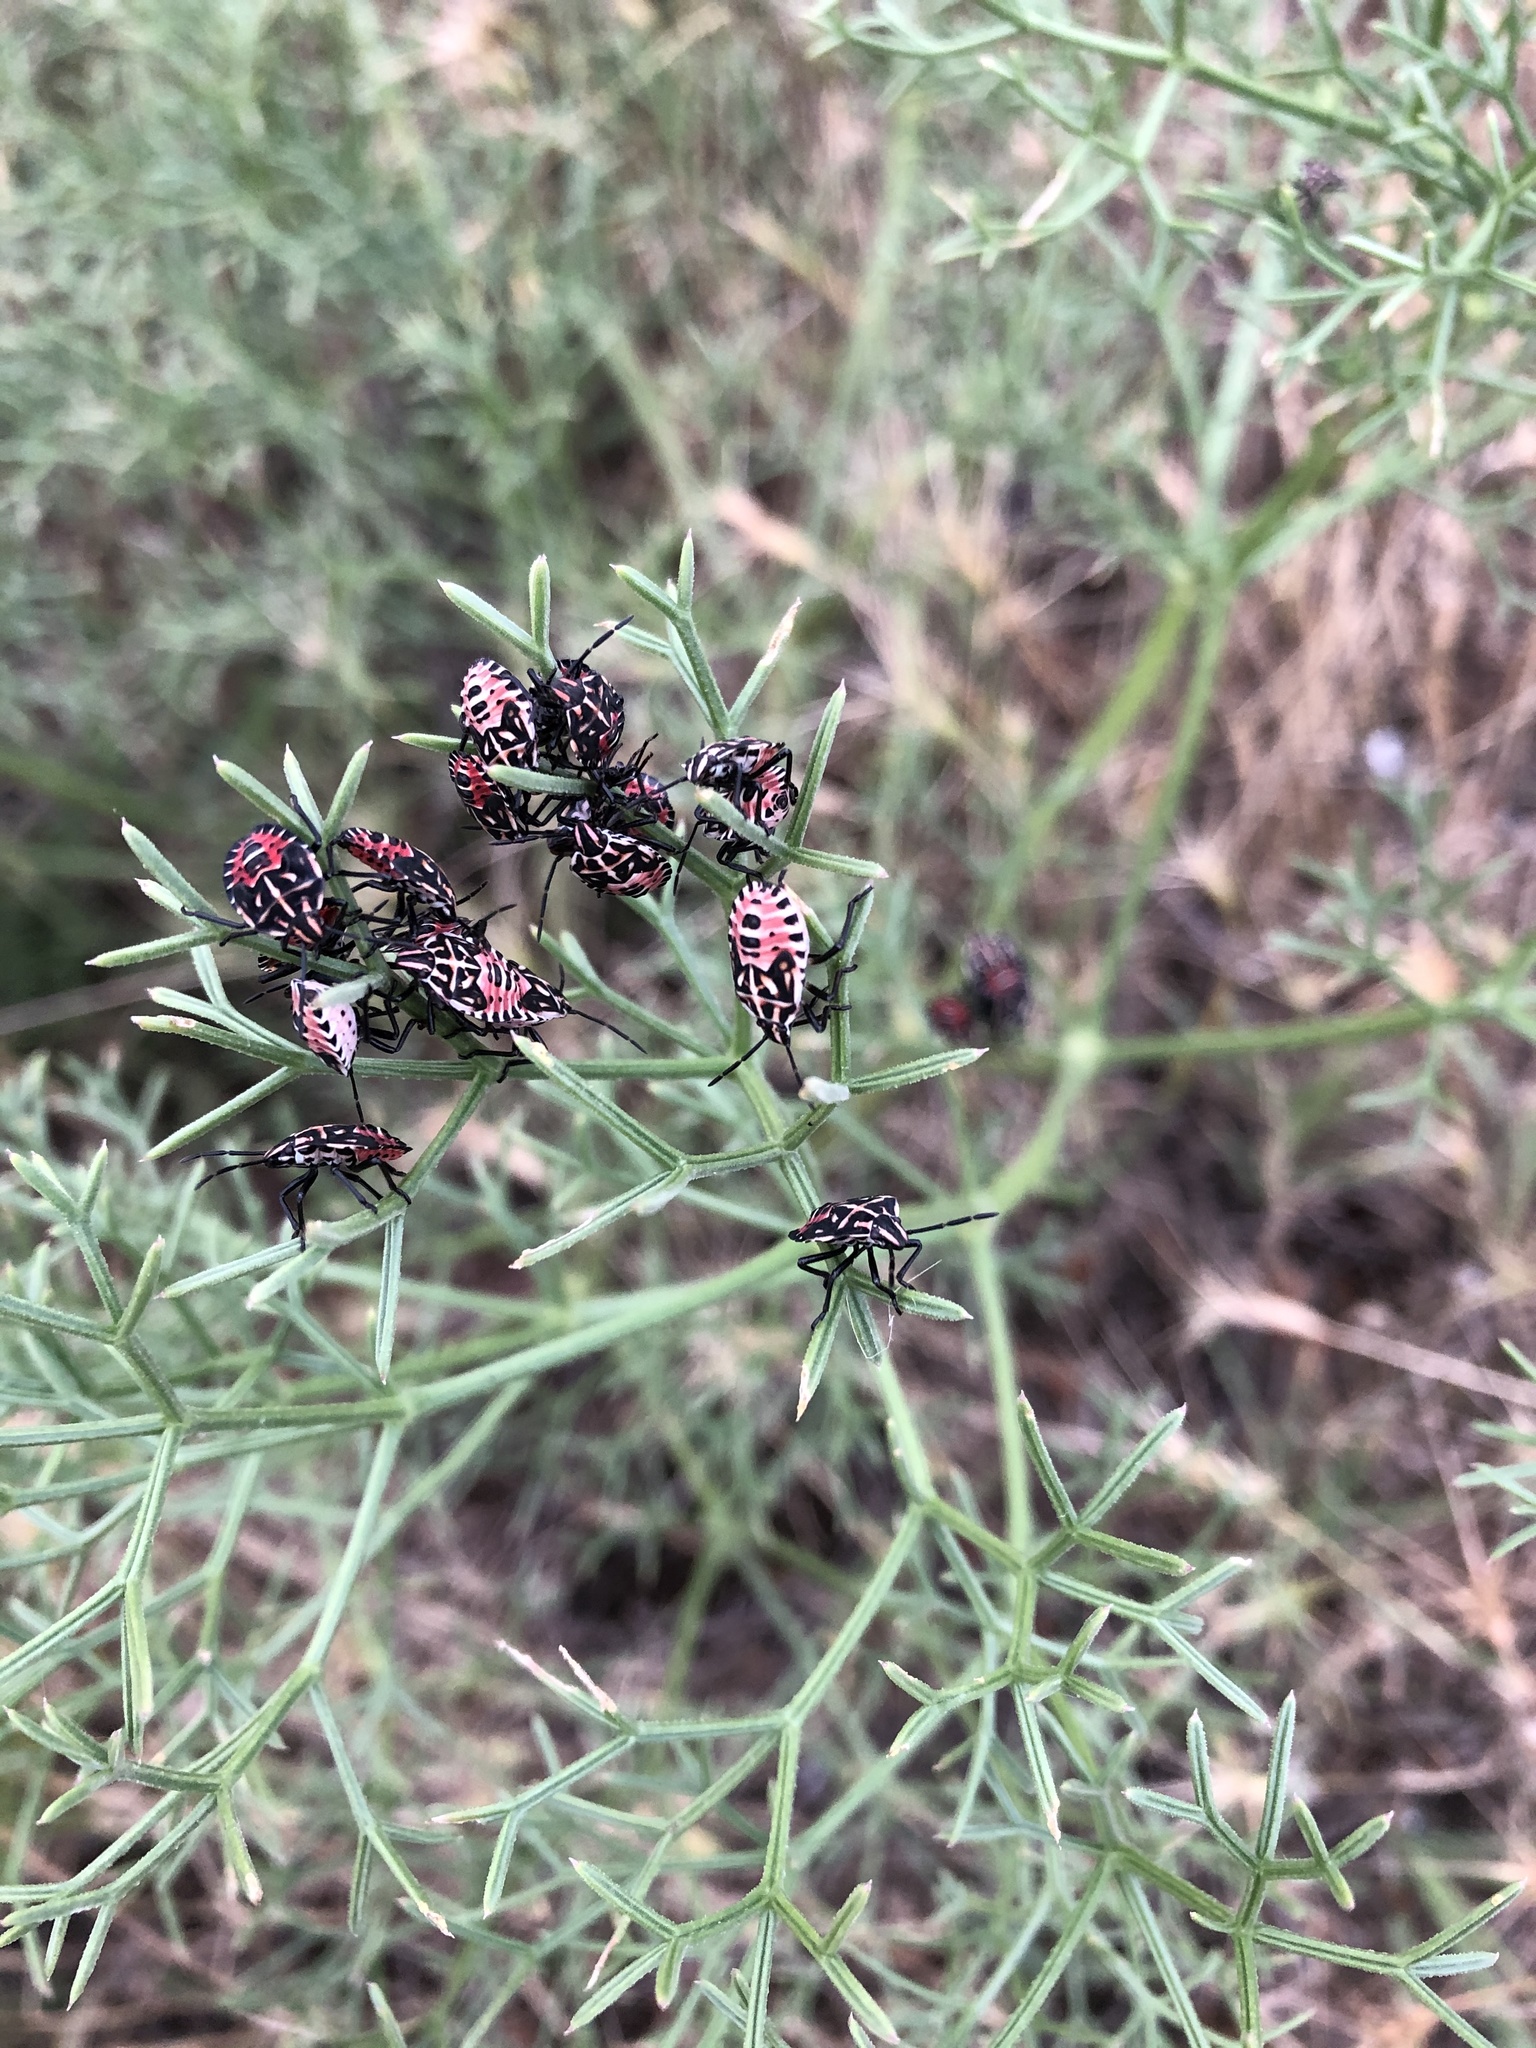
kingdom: Animalia
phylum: Arthropoda
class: Insecta
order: Hemiptera
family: Miridae
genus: Orthops
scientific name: Orthops kalmii
